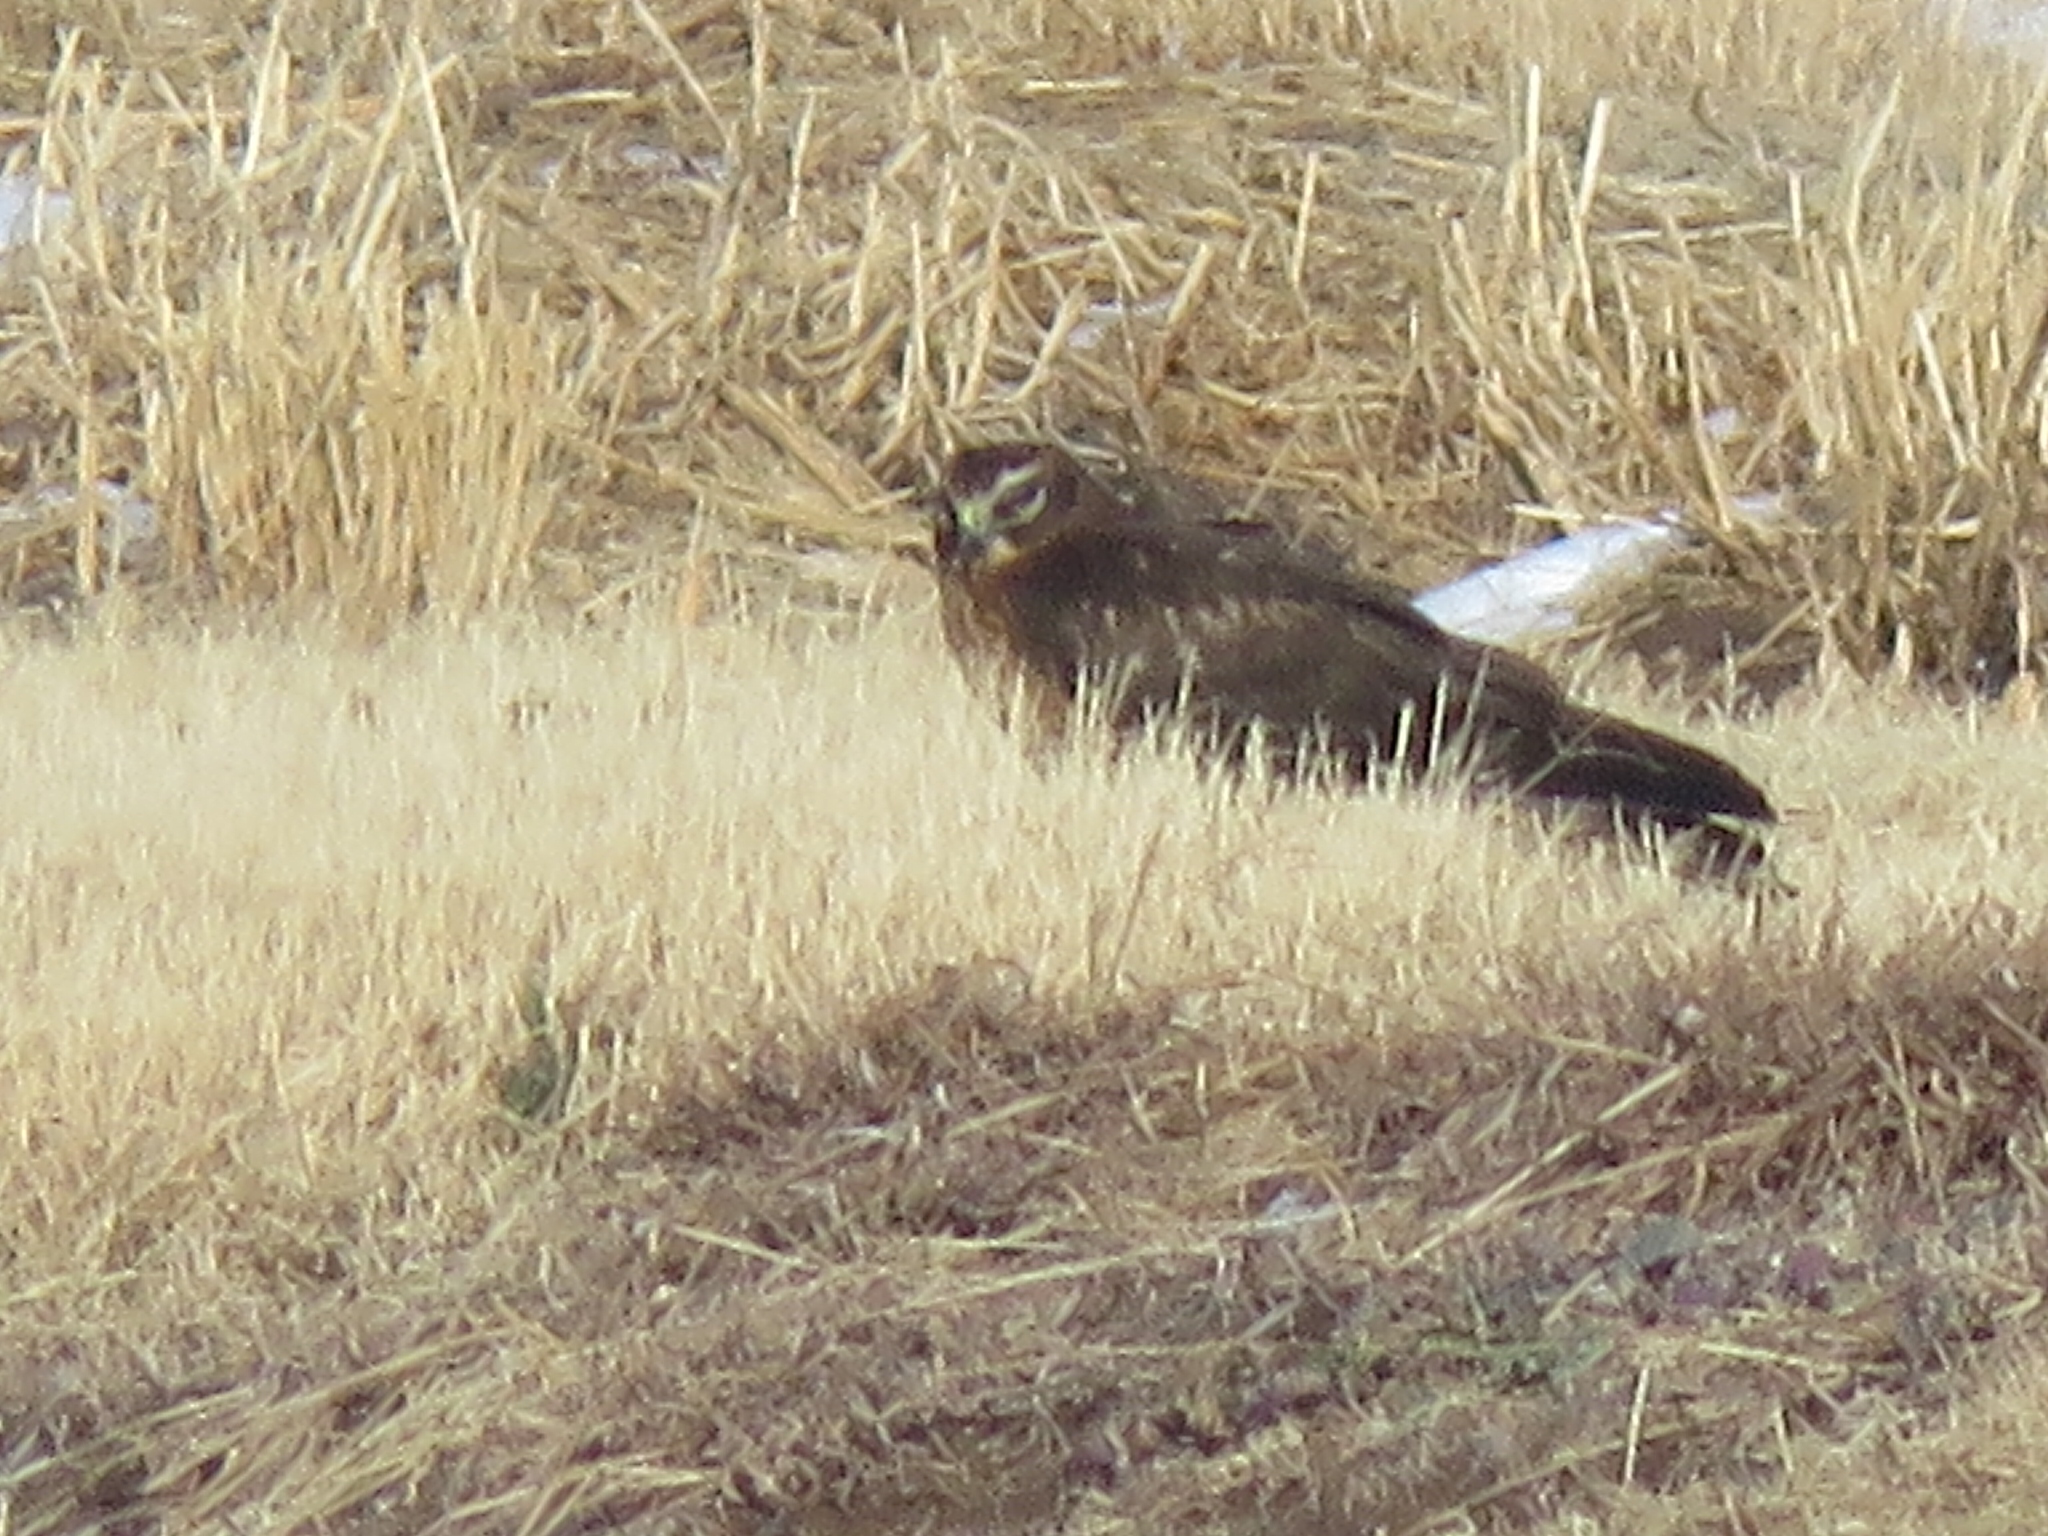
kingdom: Animalia
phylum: Chordata
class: Aves
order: Accipitriformes
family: Accipitridae
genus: Circus
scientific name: Circus cyaneus
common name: Hen harrier
